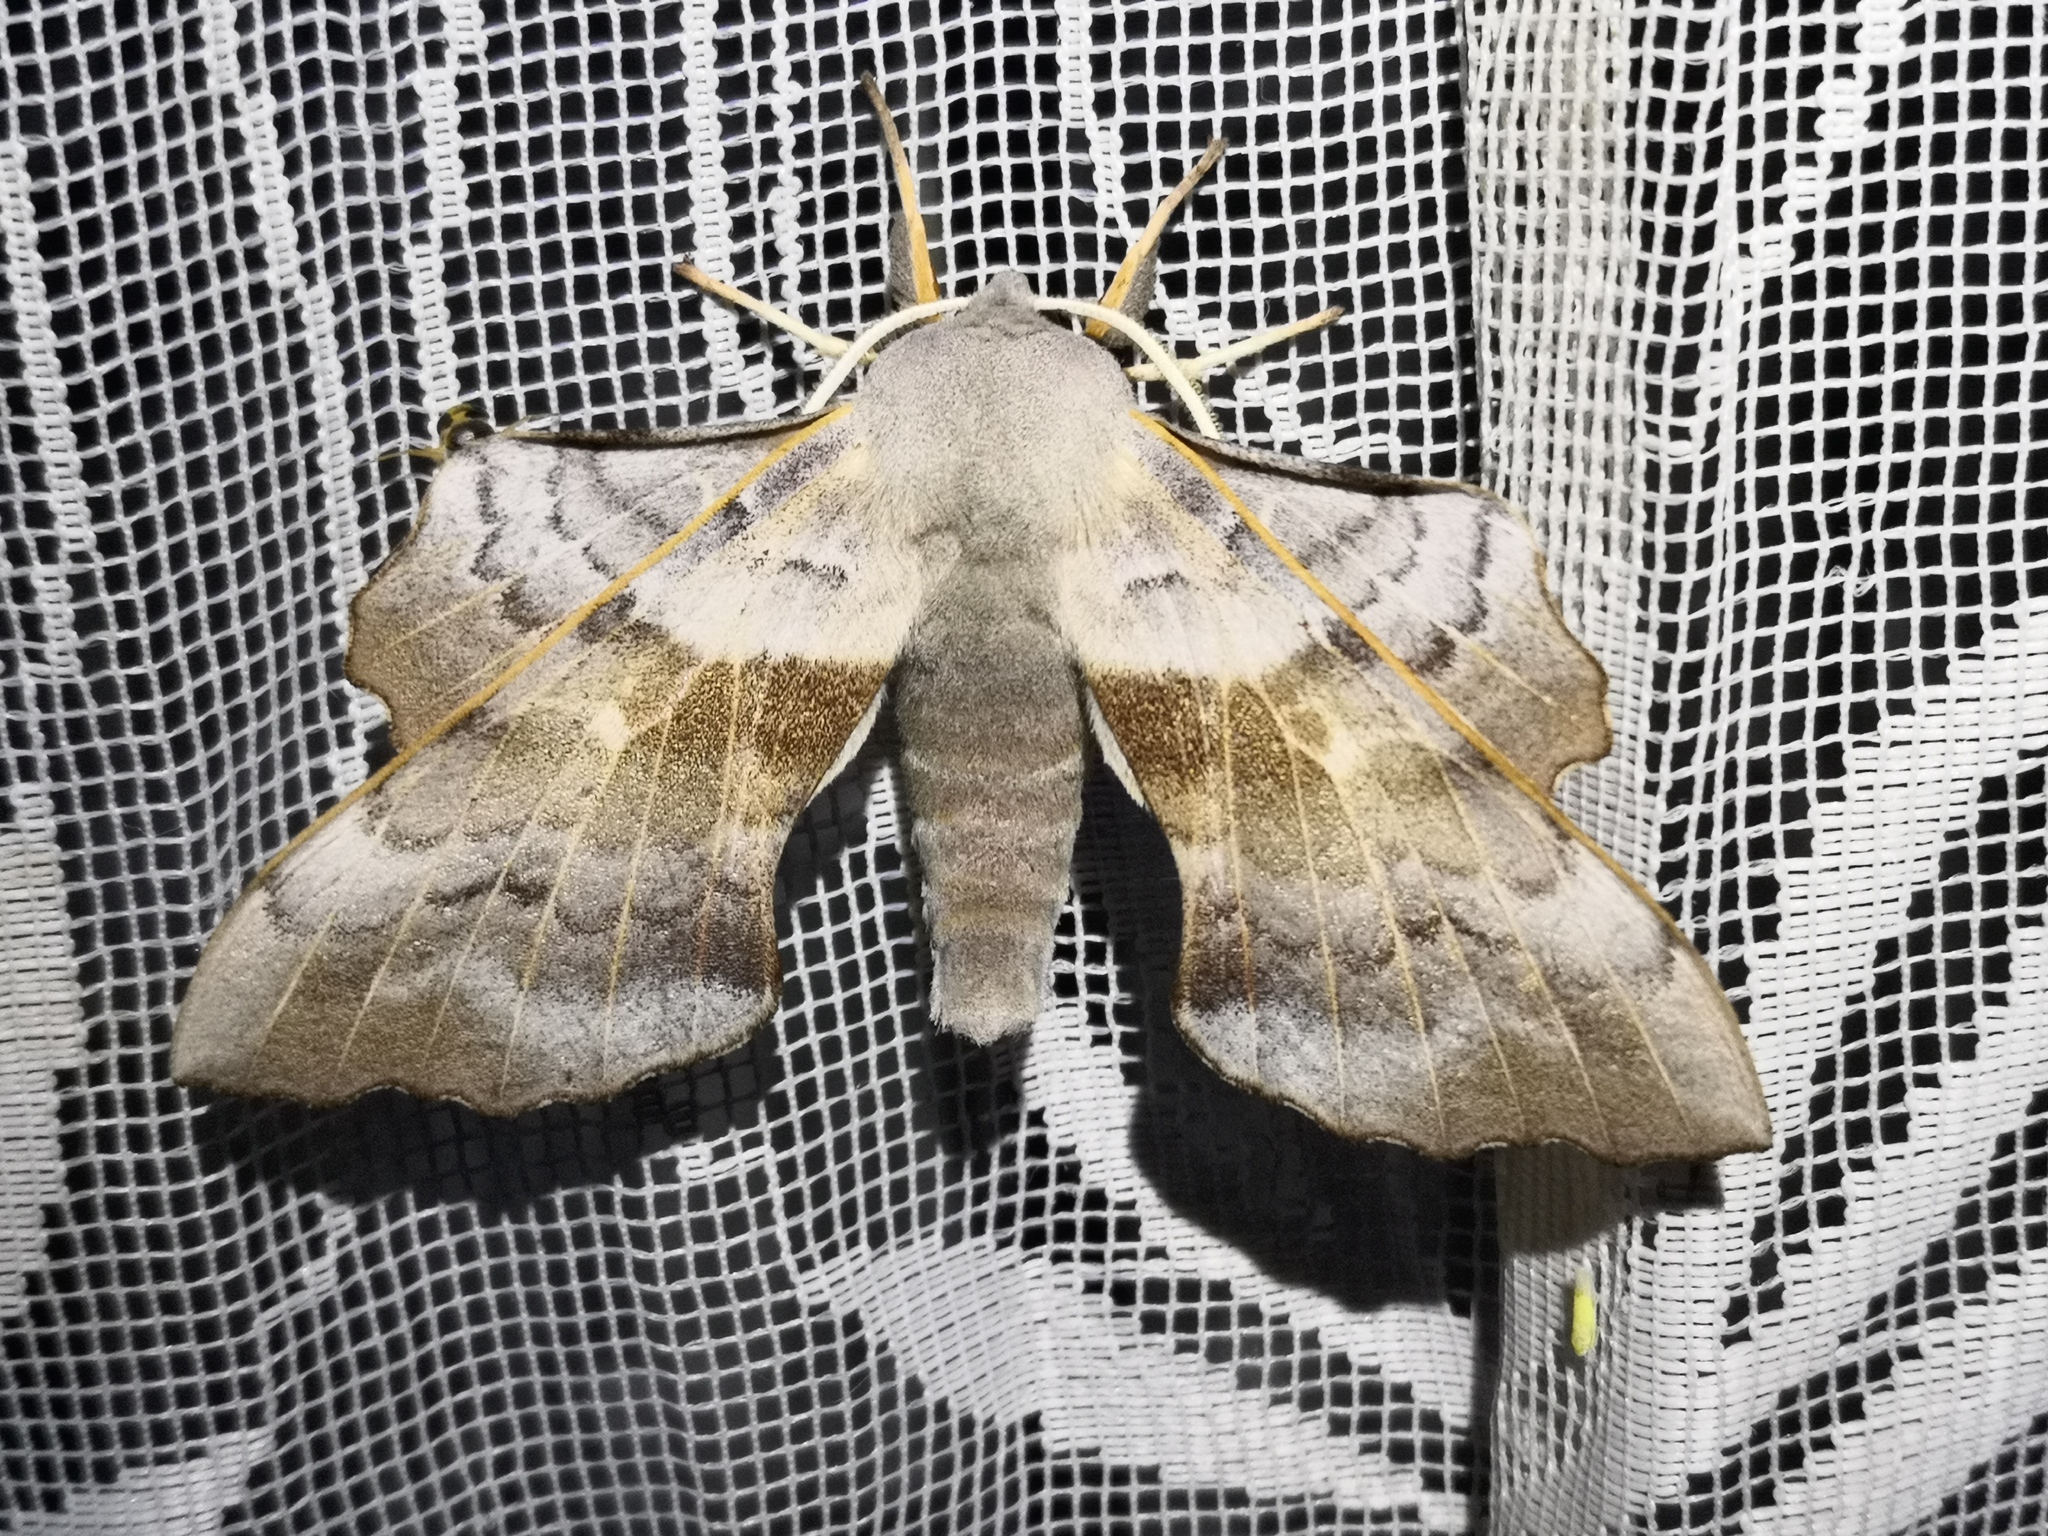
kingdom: Animalia
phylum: Arthropoda
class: Insecta
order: Lepidoptera
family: Sphingidae
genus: Laothoe
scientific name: Laothoe populi
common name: Poplar hawk-moth
